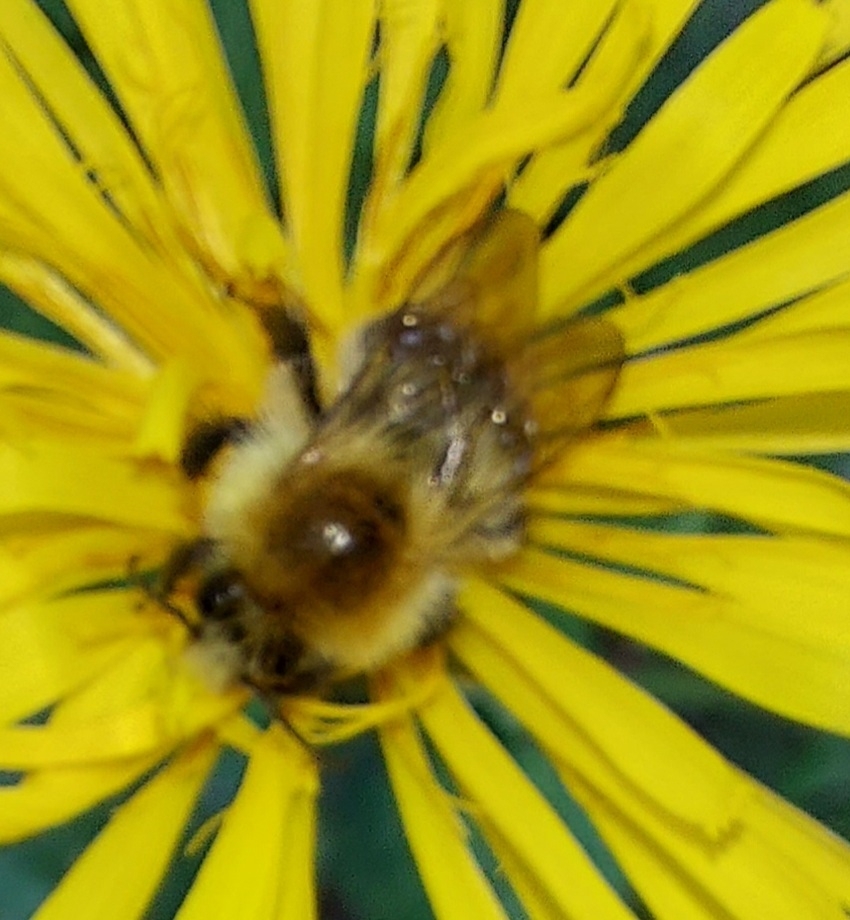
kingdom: Animalia
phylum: Arthropoda
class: Insecta
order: Hymenoptera
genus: Thoracobombus
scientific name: Thoracobombus
